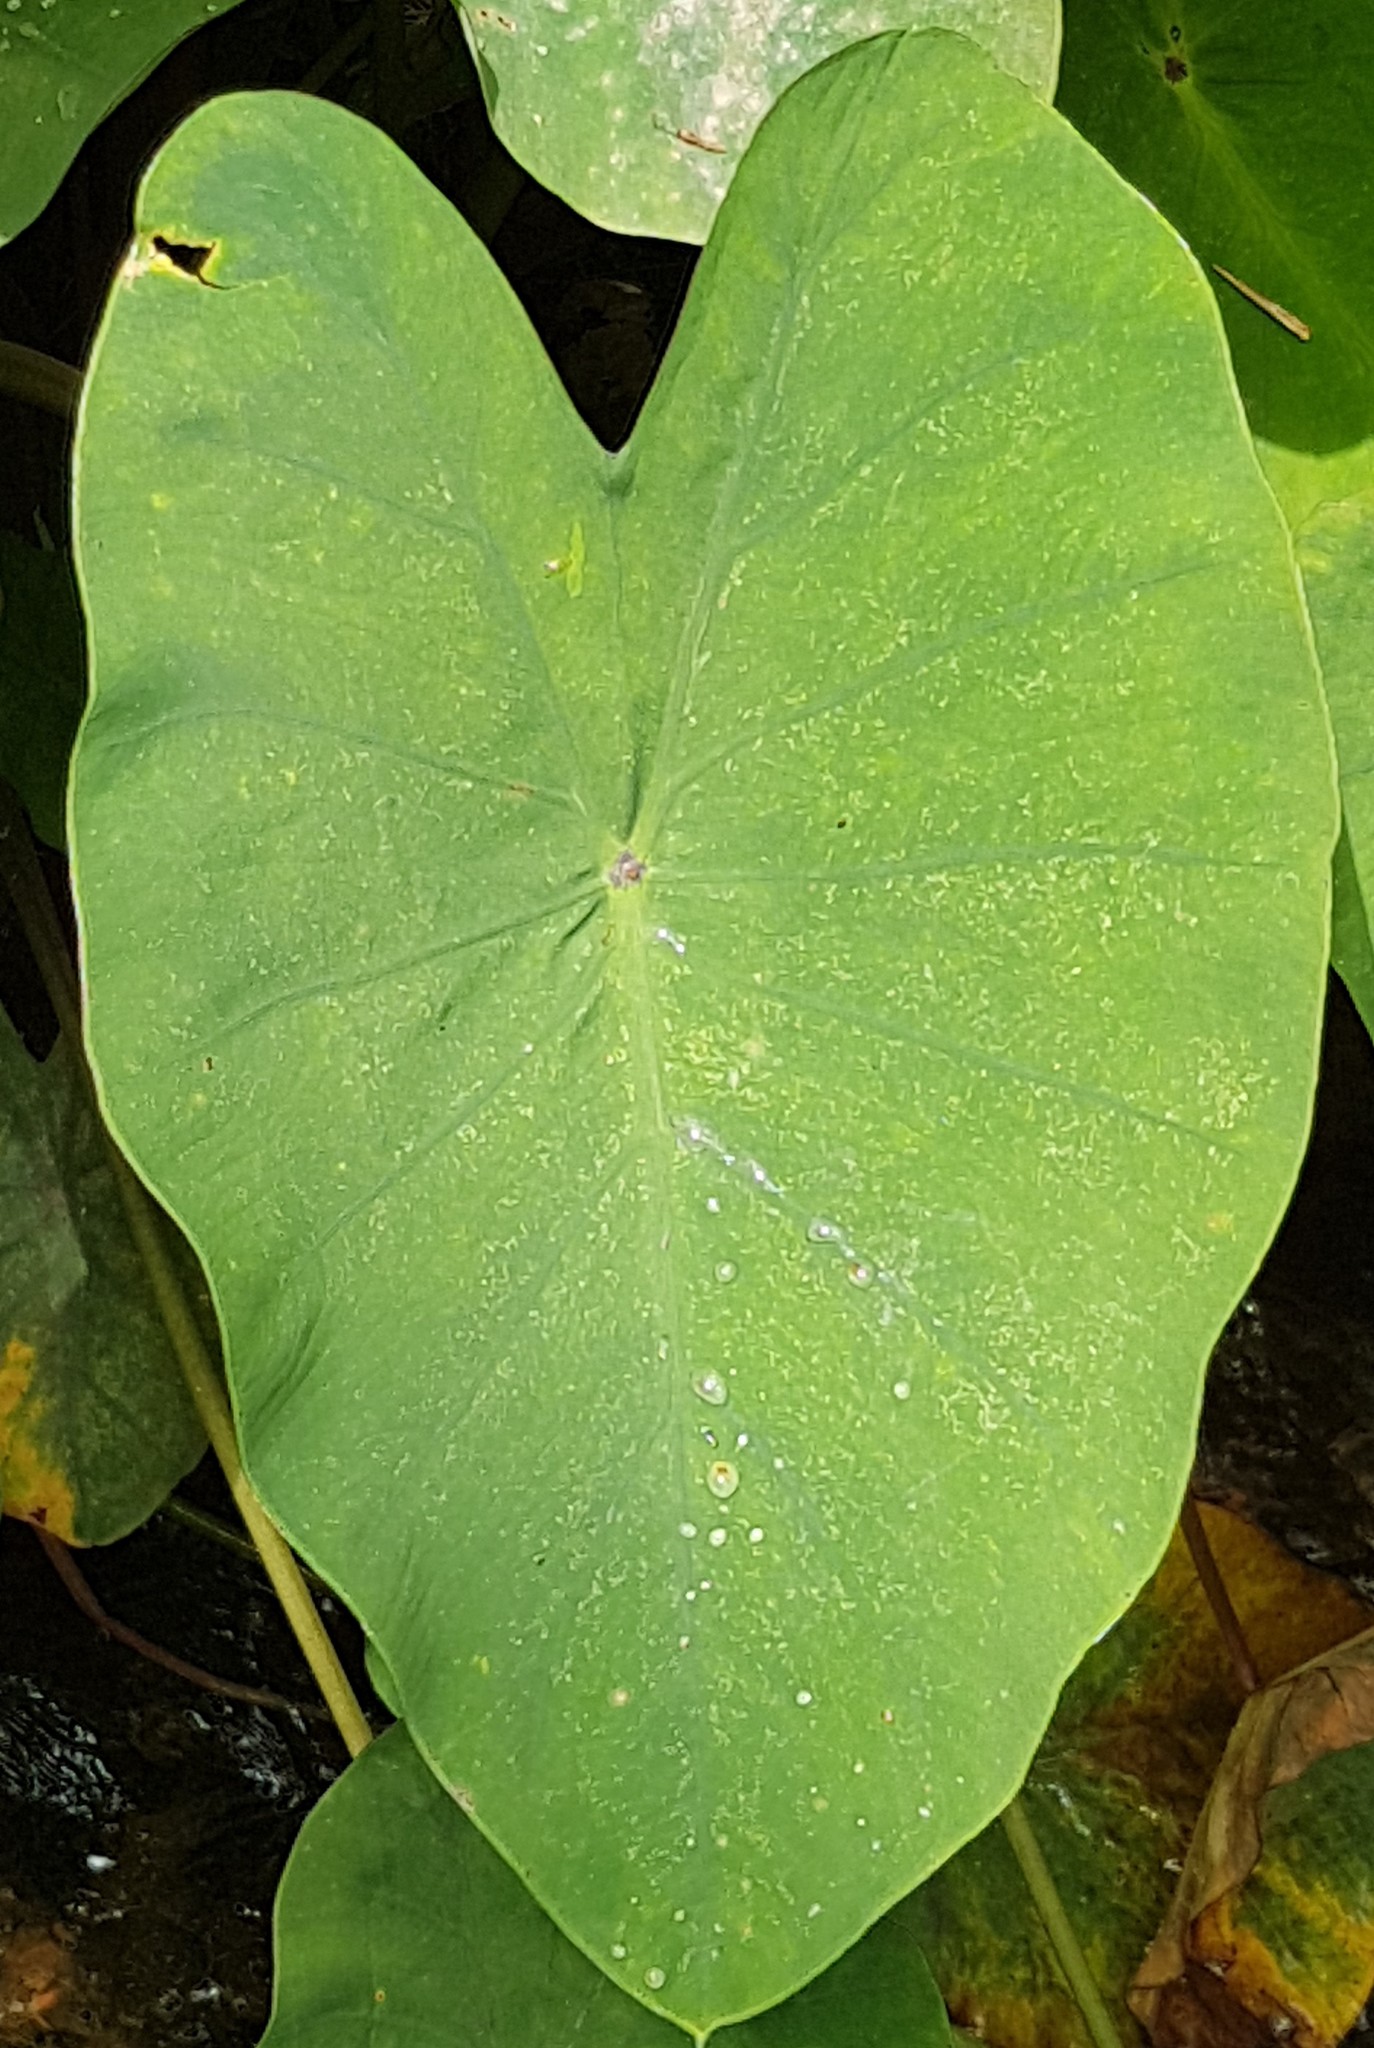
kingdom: Plantae
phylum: Tracheophyta
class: Liliopsida
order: Alismatales
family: Araceae
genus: Colocasia
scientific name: Colocasia esculenta
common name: Taro
